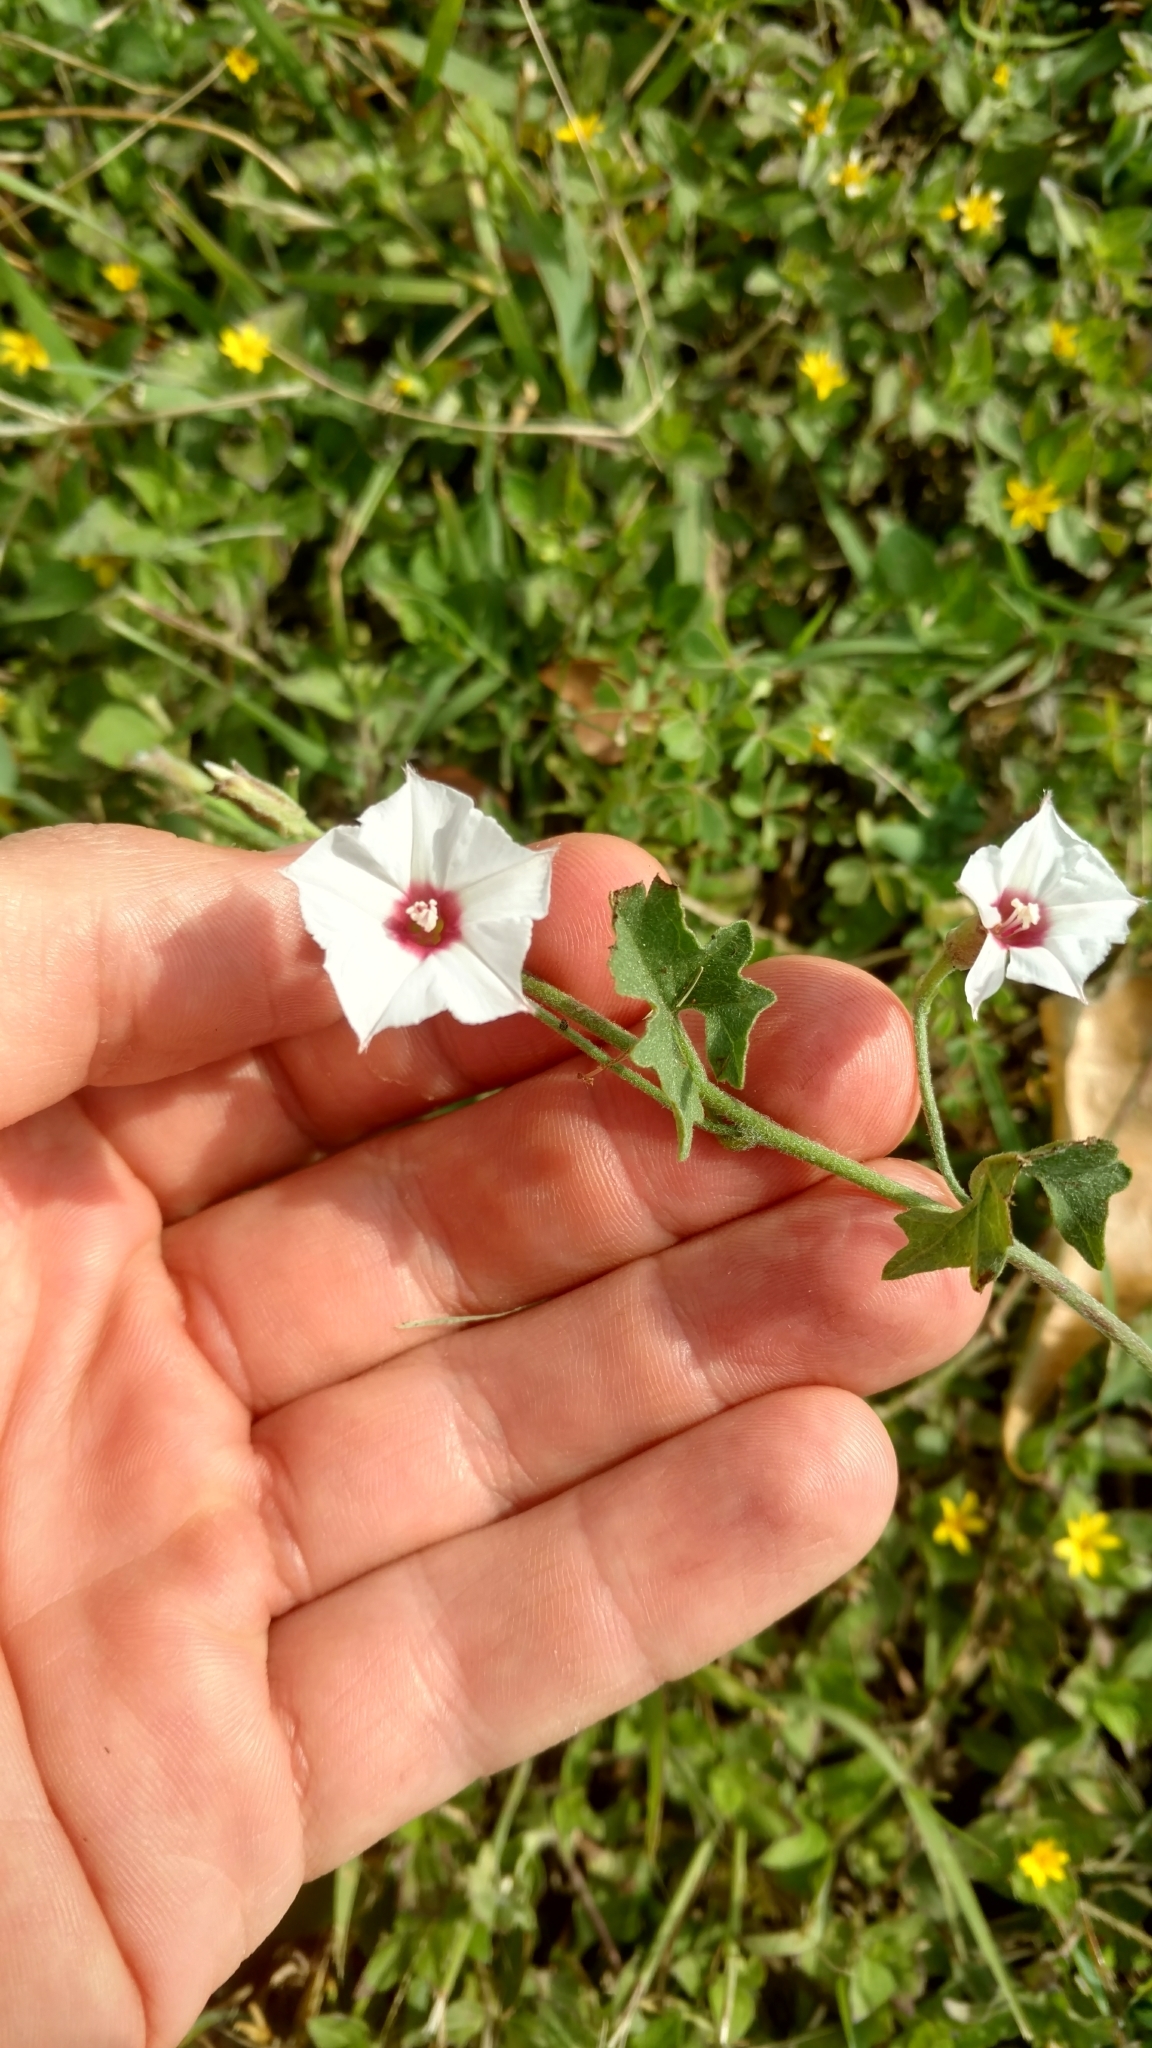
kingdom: Plantae
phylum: Tracheophyta
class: Magnoliopsida
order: Solanales
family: Convolvulaceae
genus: Convolvulus
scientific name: Convolvulus equitans
